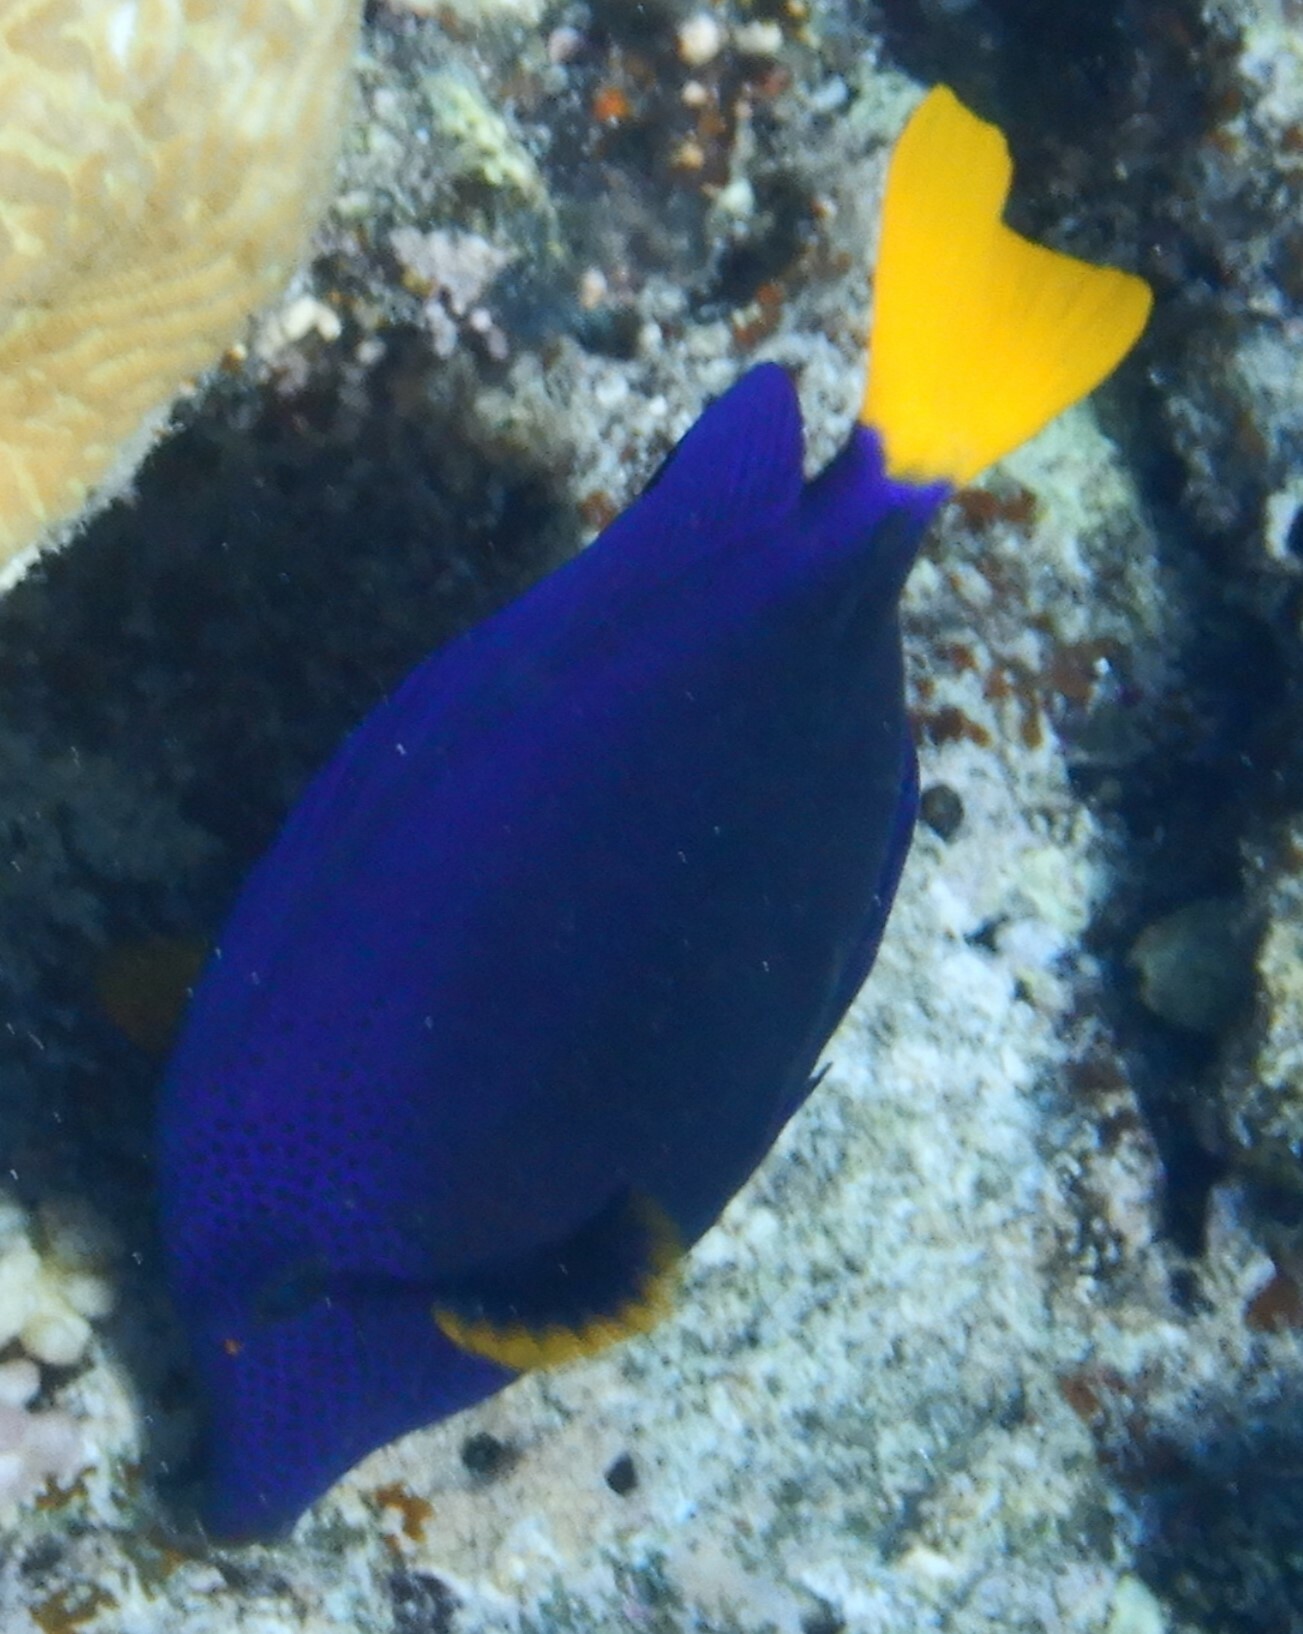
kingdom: Animalia
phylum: Chordata
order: Perciformes
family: Acanthuridae
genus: Zebrasoma
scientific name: Zebrasoma xanthurum
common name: Purple tang
